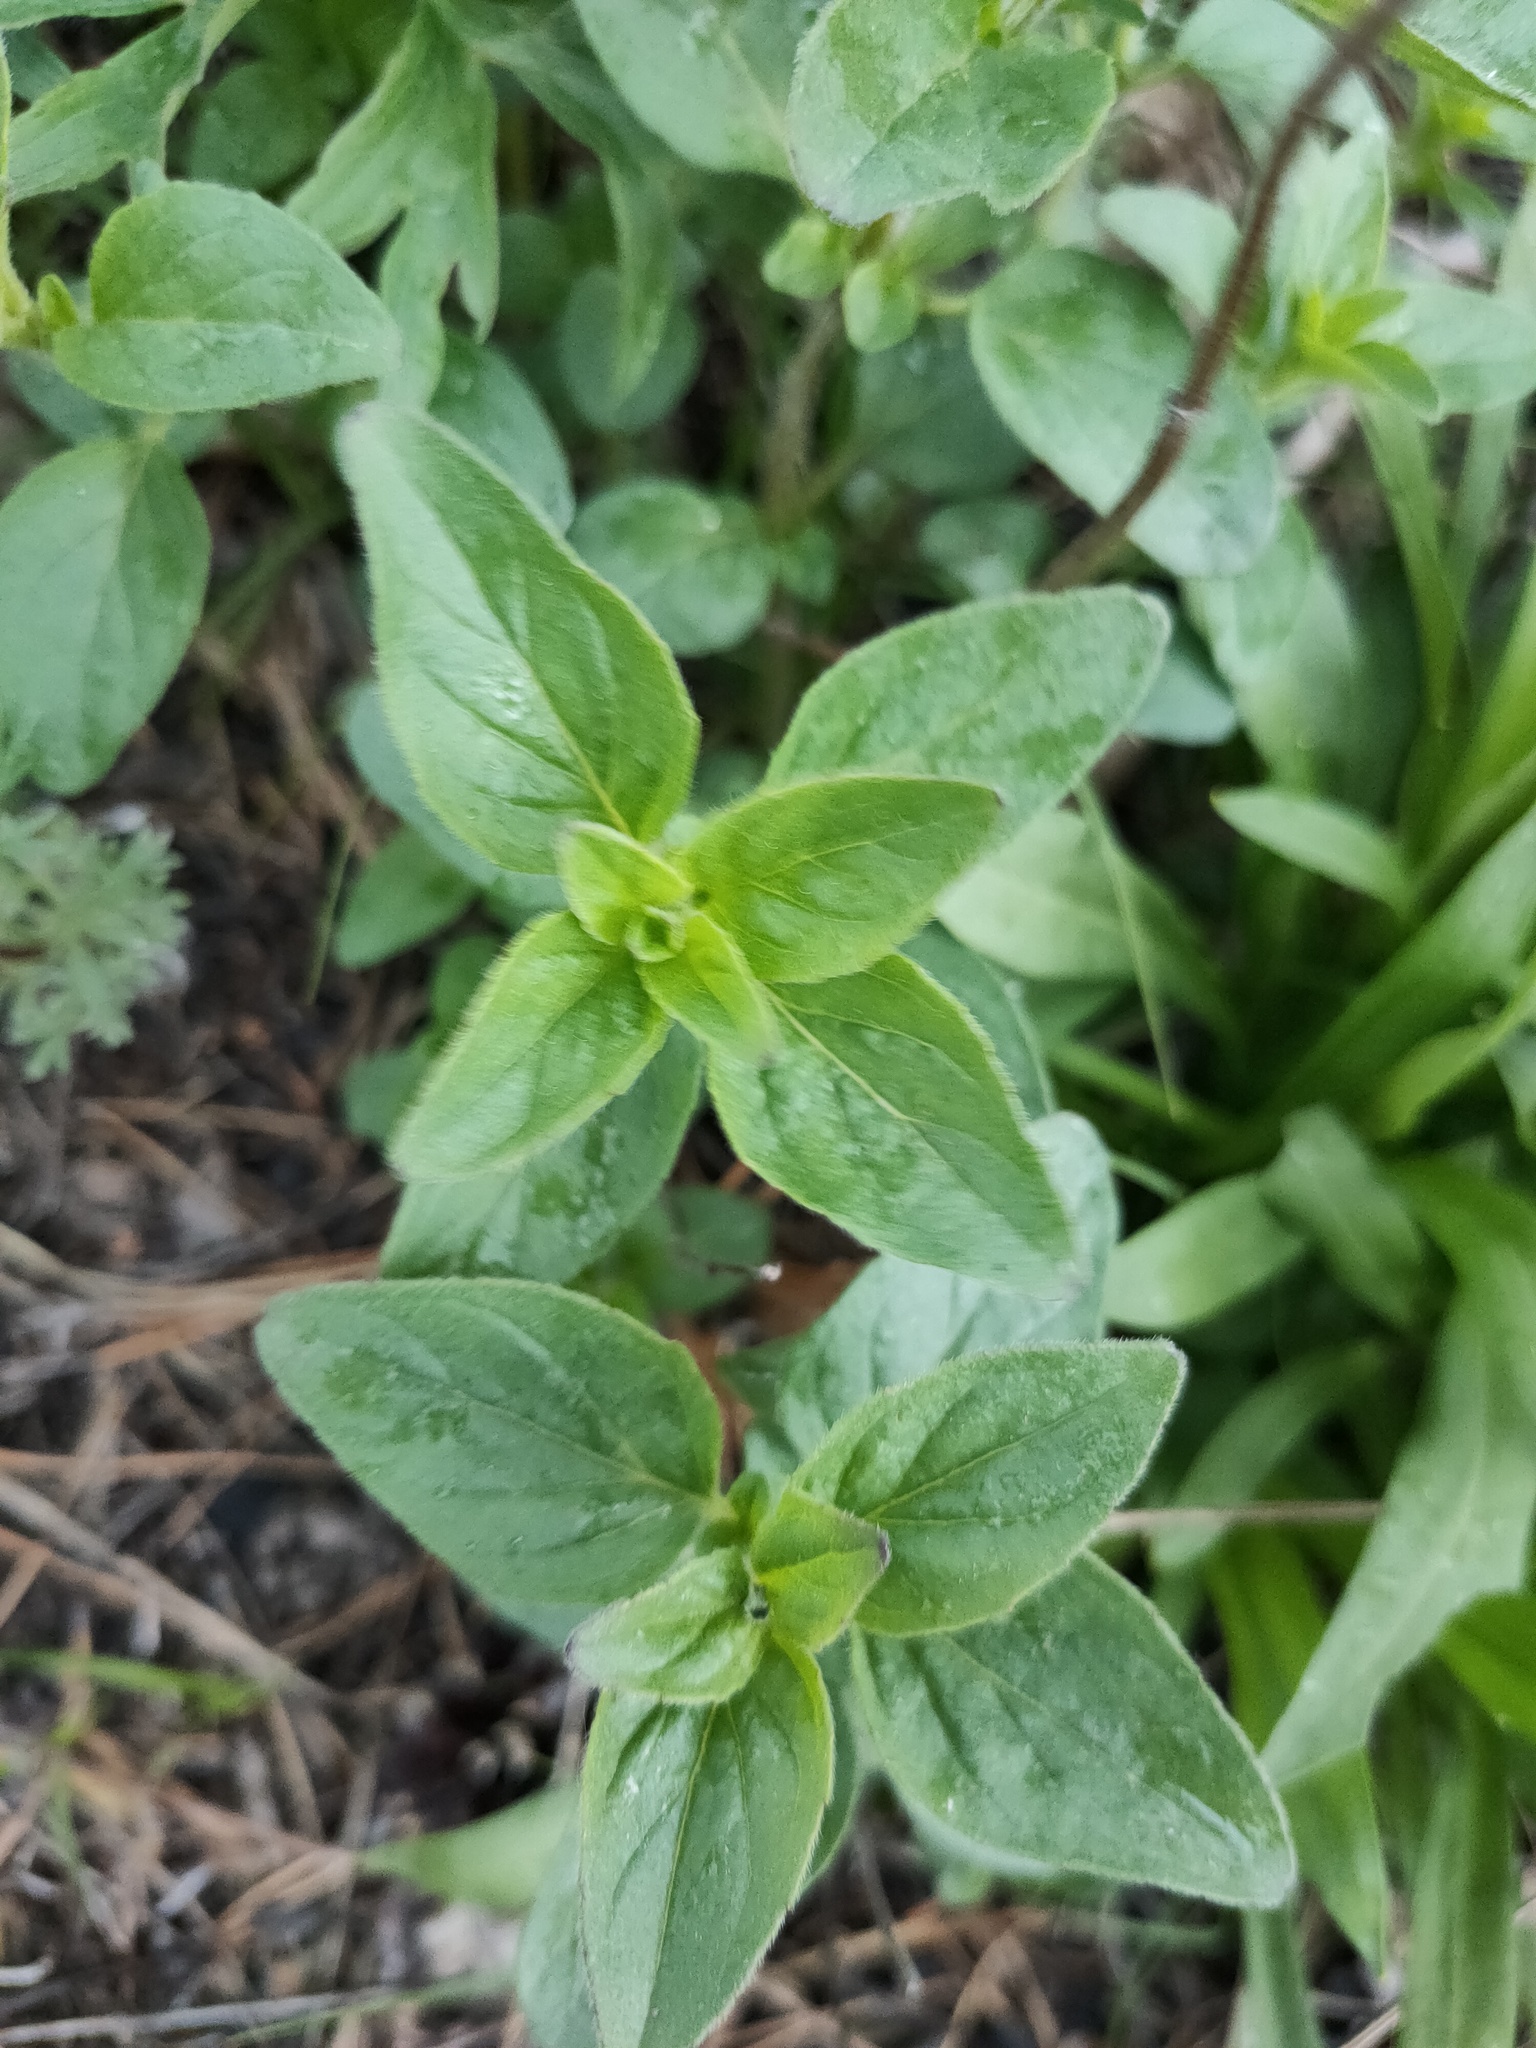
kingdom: Plantae
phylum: Tracheophyta
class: Magnoliopsida
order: Lamiales
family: Lamiaceae
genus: Origanum
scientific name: Origanum vulgare
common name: Wild marjoram
